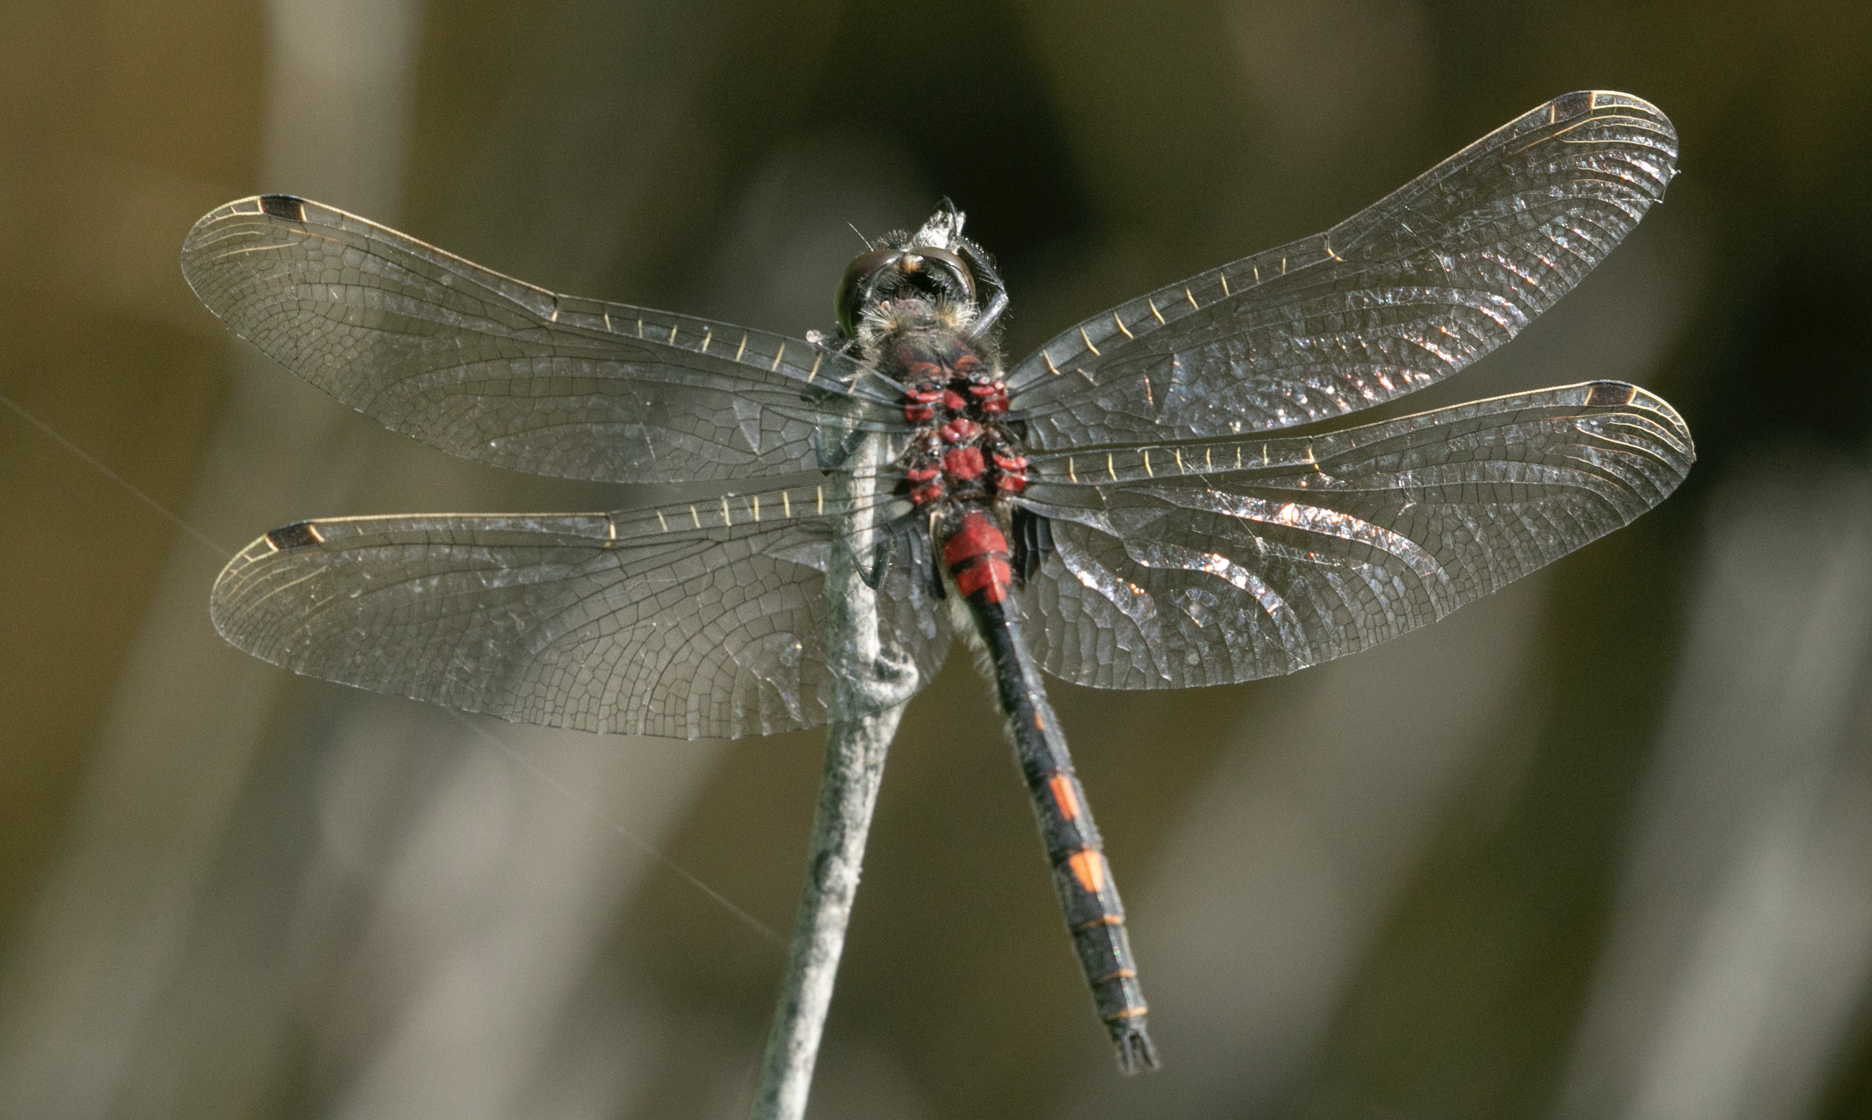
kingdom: Animalia
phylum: Arthropoda
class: Insecta
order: Odonata
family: Libellulidae
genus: Leucorrhinia
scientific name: Leucorrhinia dubia
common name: White-faced darter
